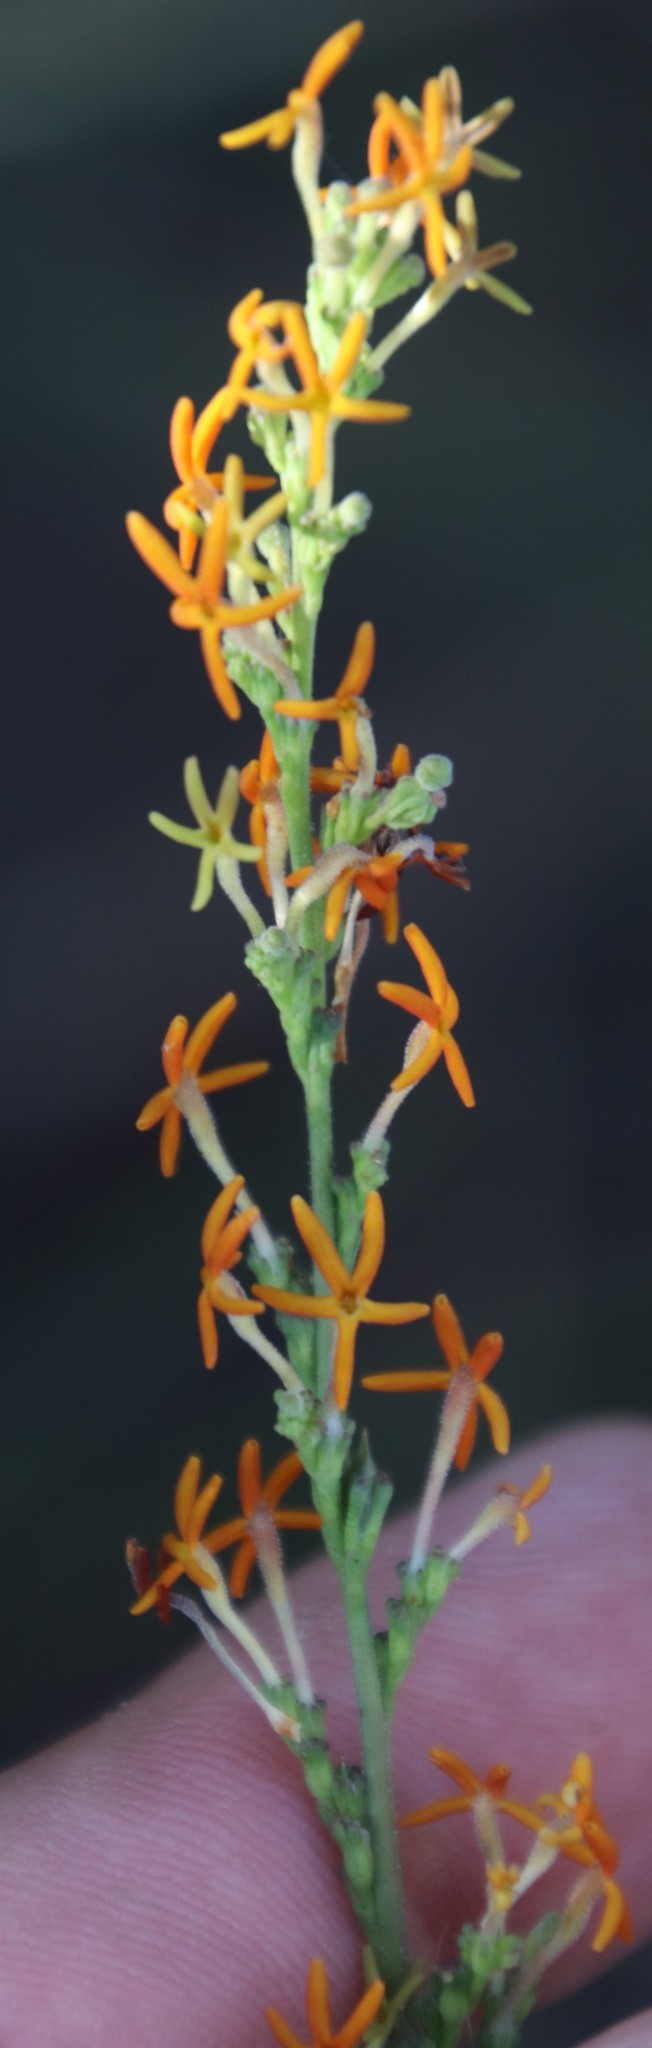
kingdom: Plantae
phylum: Tracheophyta
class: Magnoliopsida
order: Lamiales
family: Scrophulariaceae
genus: Manulea
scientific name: Manulea rubra
